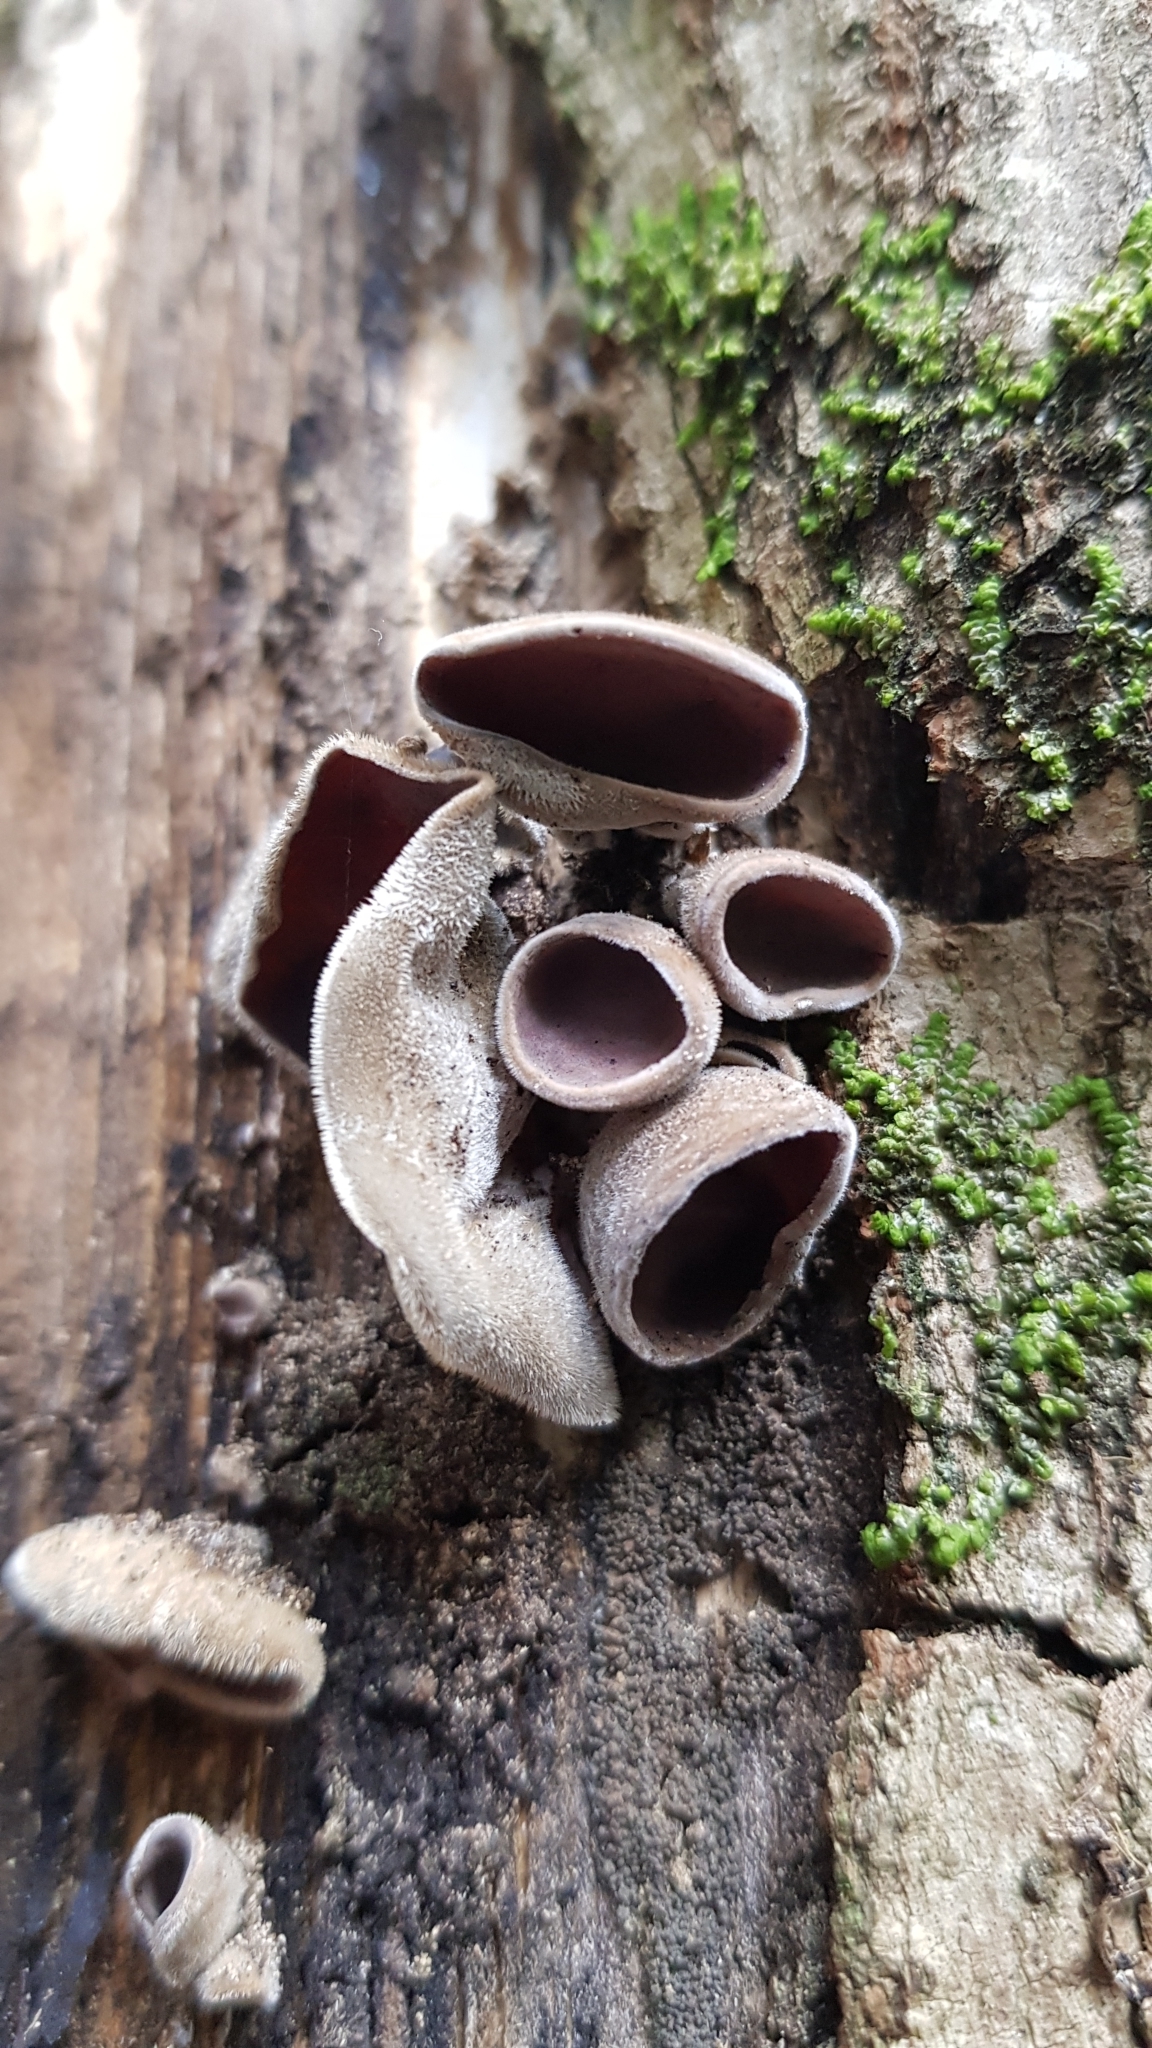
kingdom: Fungi
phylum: Basidiomycota
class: Agaricomycetes
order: Auriculariales
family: Auriculariaceae
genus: Auricularia
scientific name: Auricularia cornea
